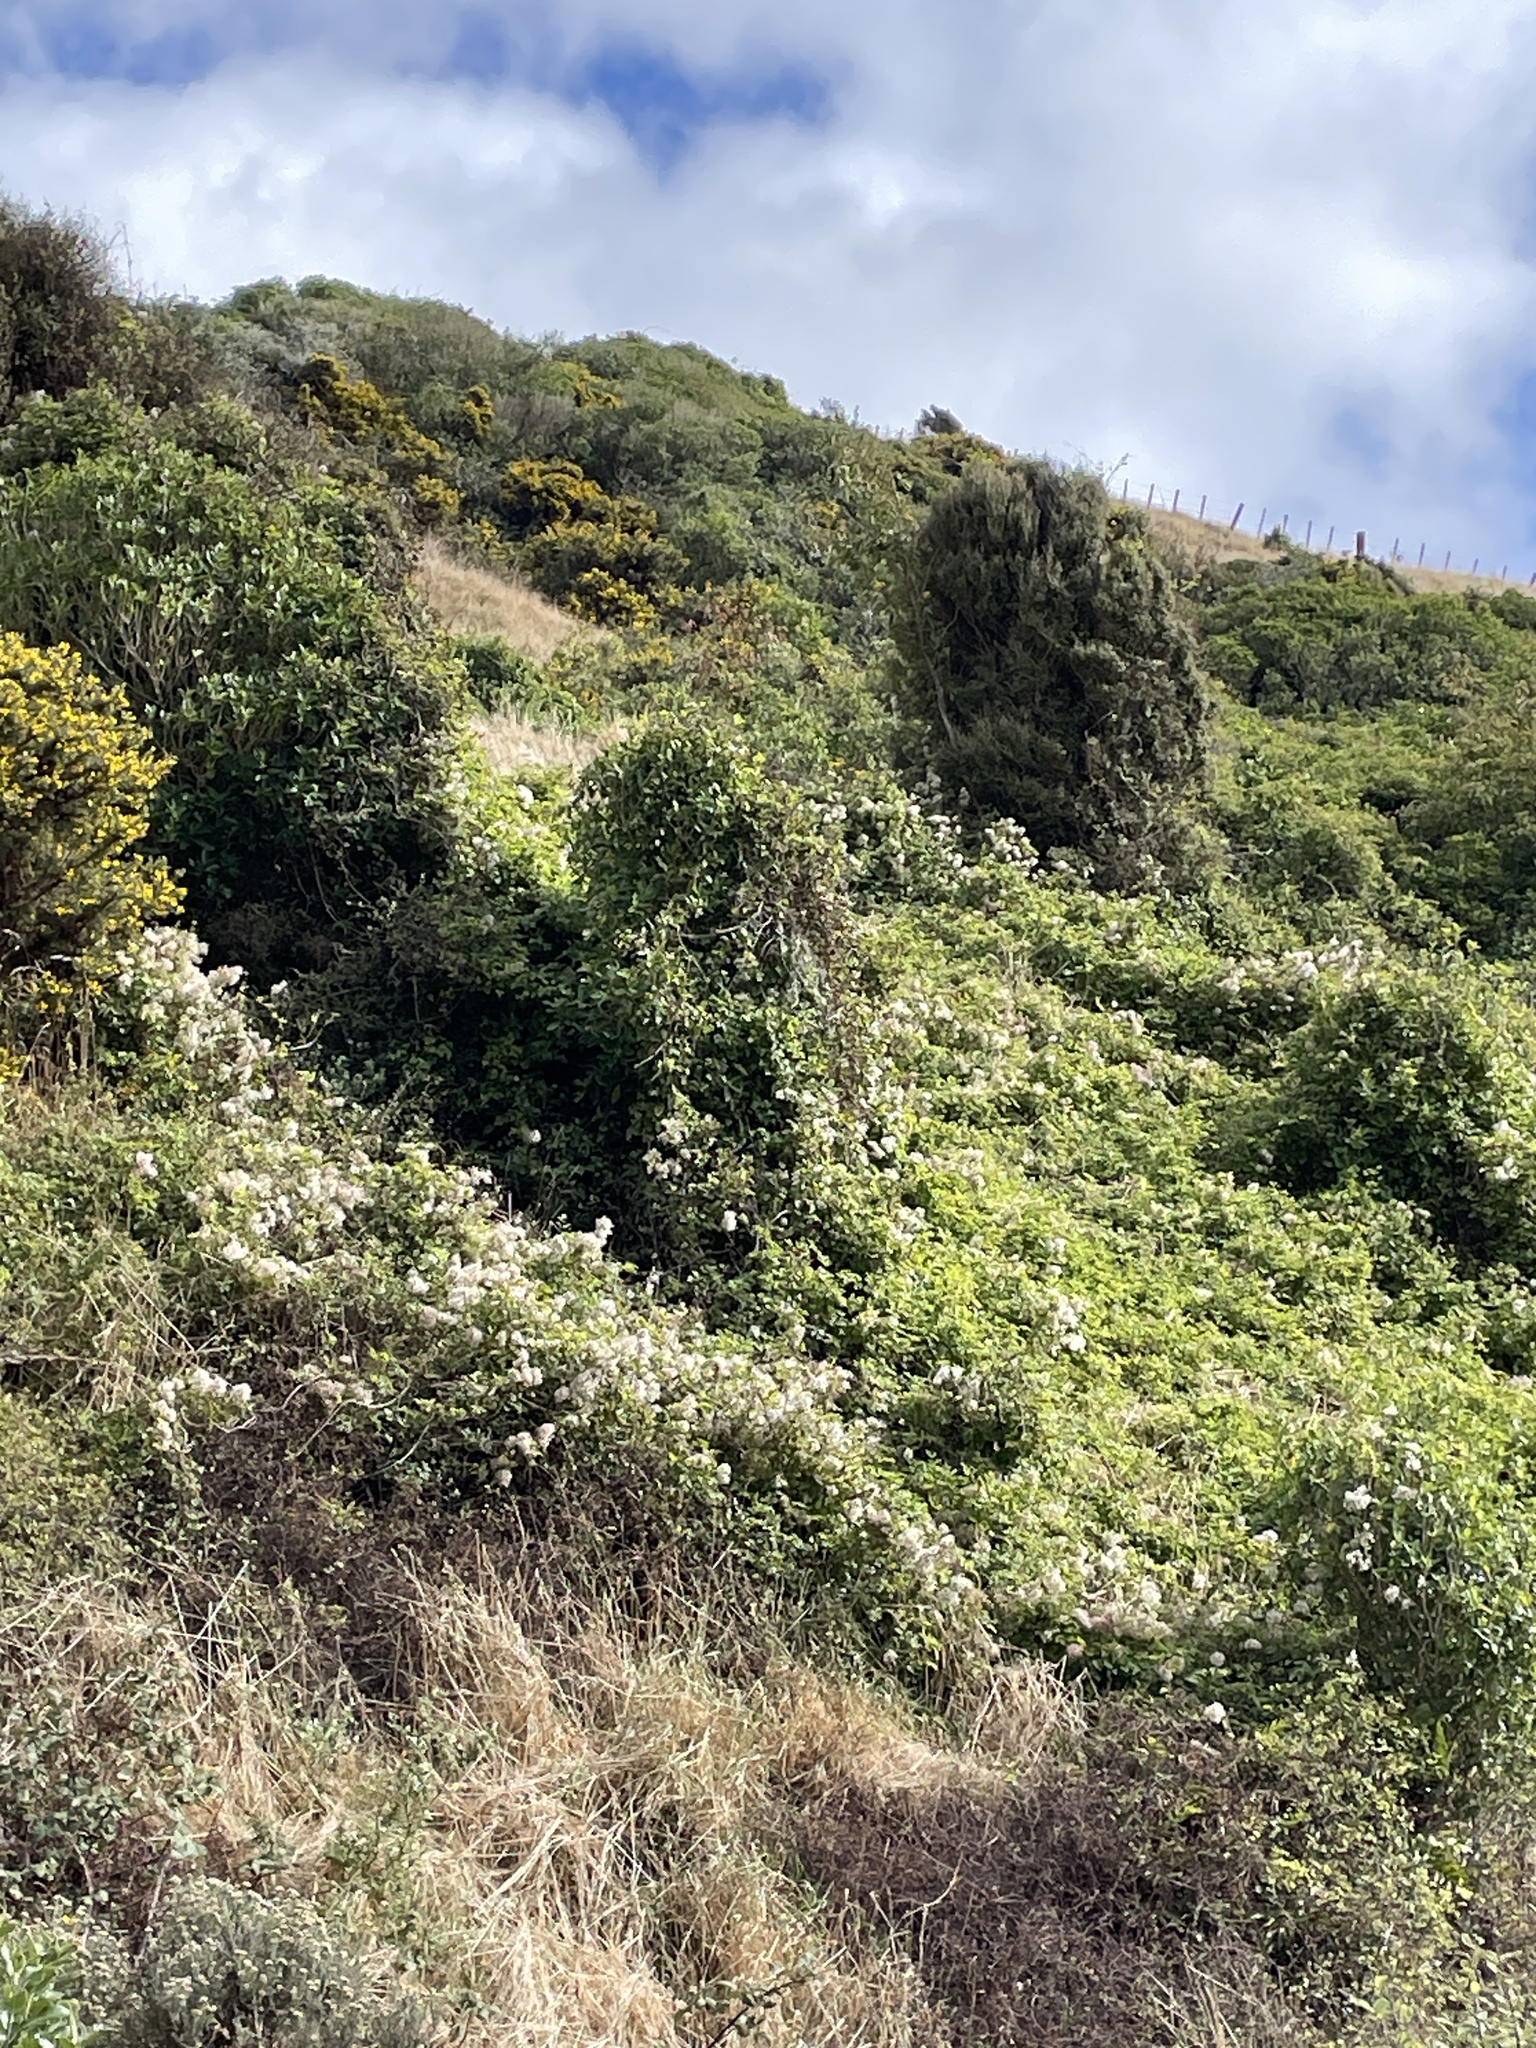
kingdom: Plantae
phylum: Tracheophyta
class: Magnoliopsida
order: Ranunculales
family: Ranunculaceae
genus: Clematis
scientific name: Clematis vitalba
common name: Evergreen clematis
